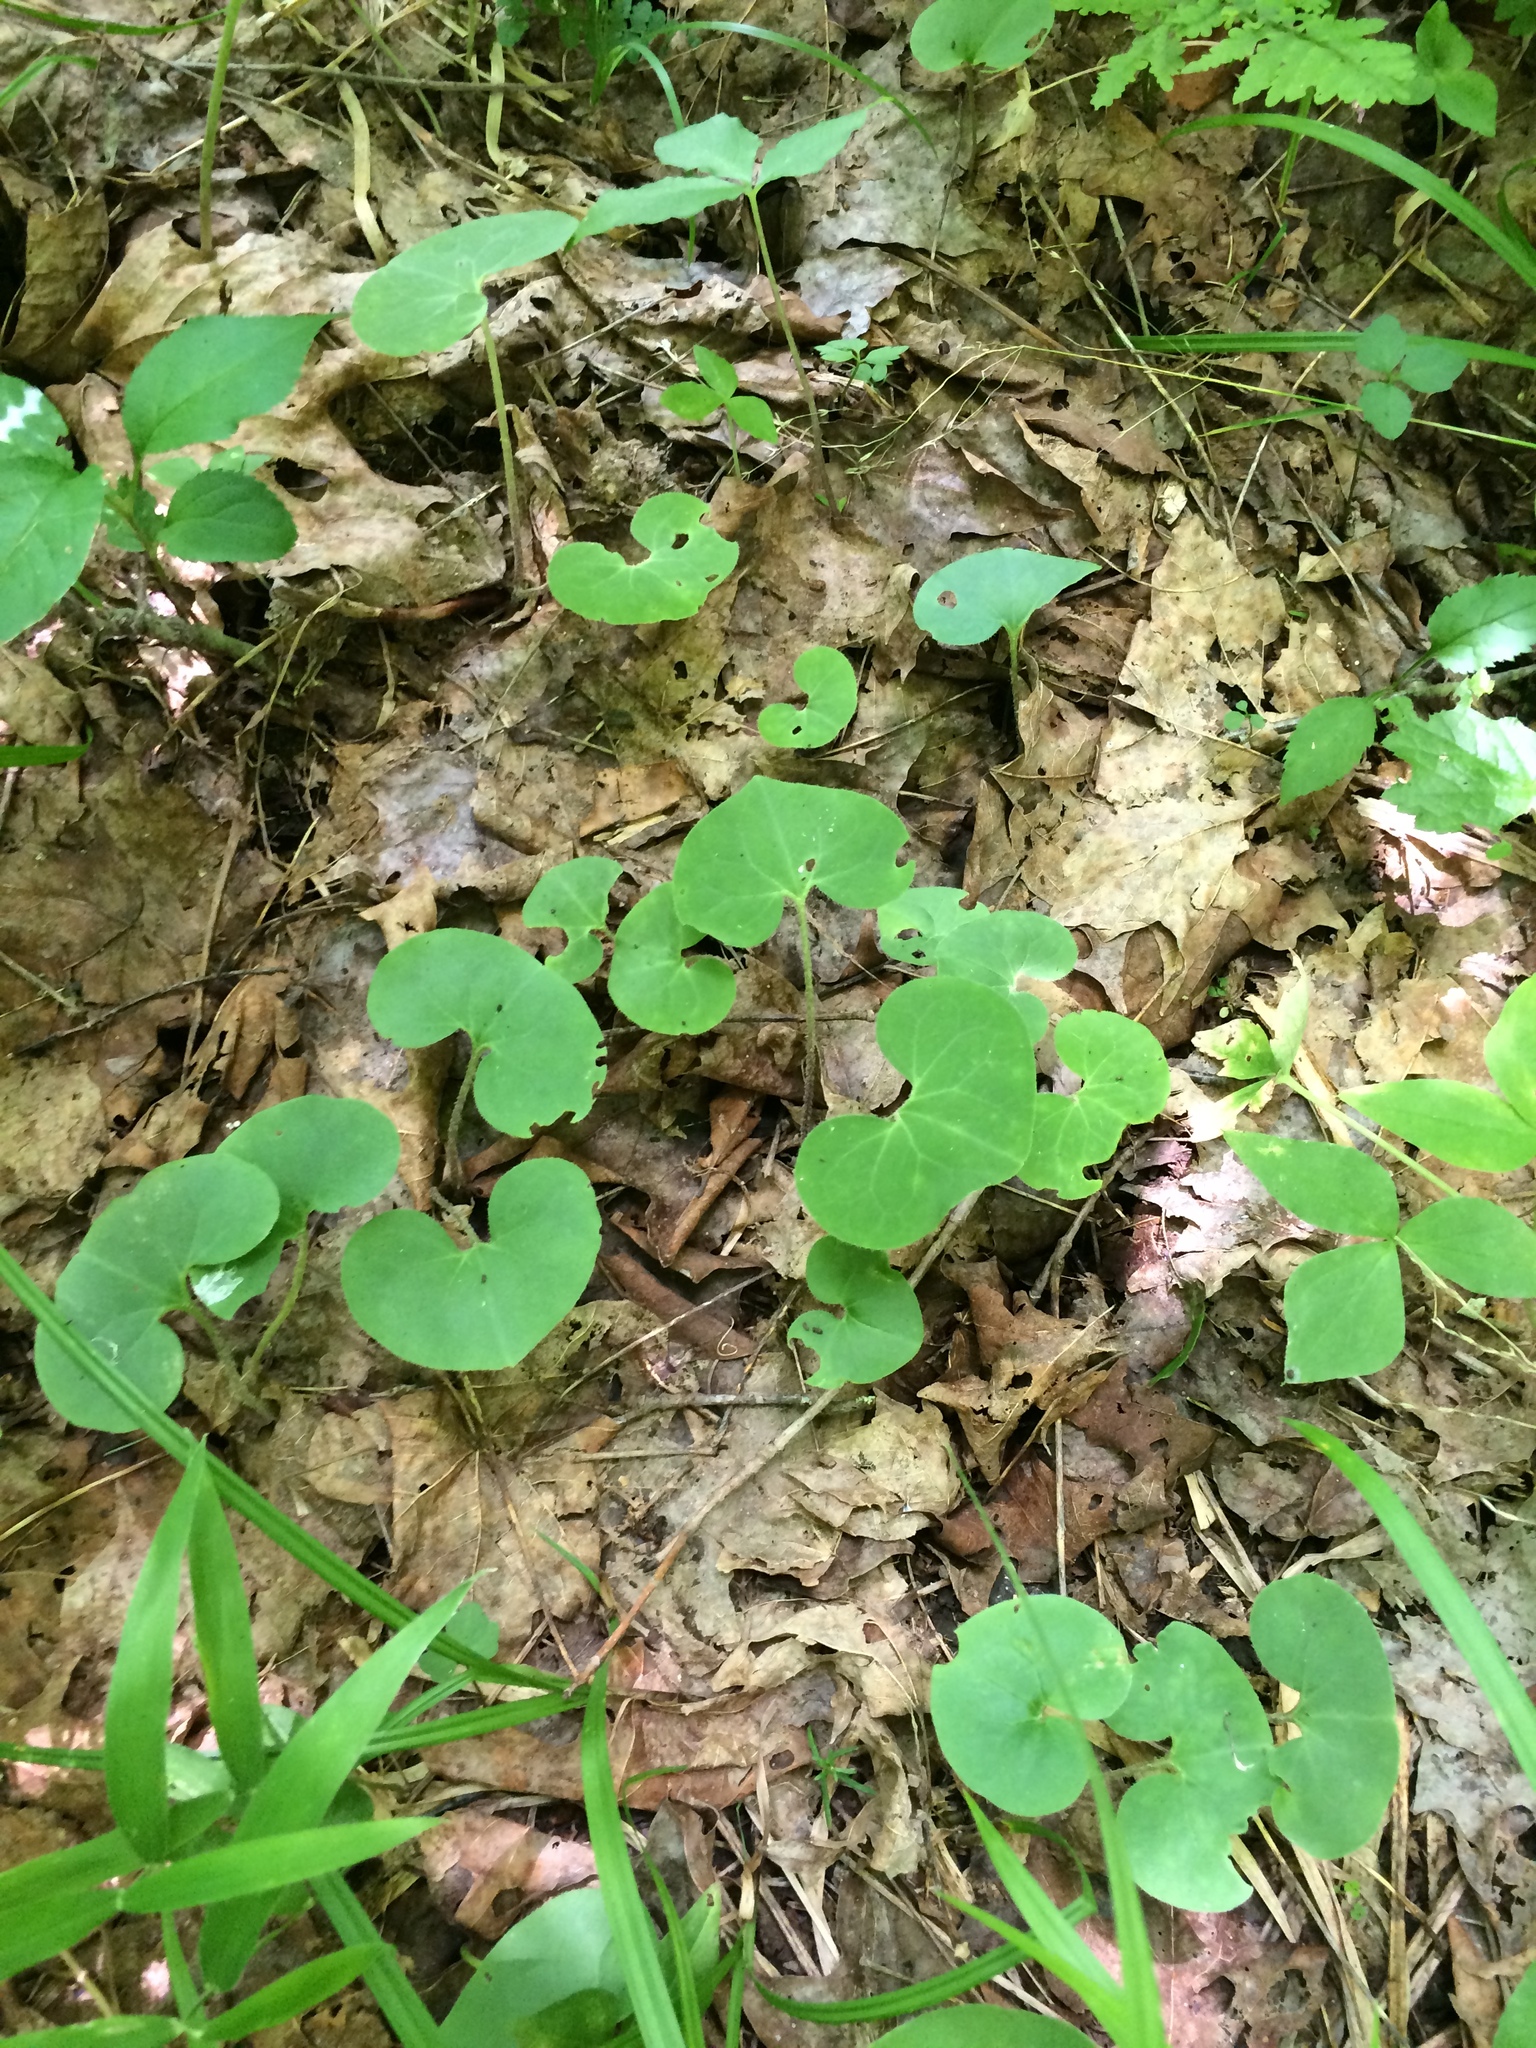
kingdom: Plantae
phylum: Tracheophyta
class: Magnoliopsida
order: Piperales
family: Aristolochiaceae
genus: Asarum
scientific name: Asarum canadense
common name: Wild ginger
